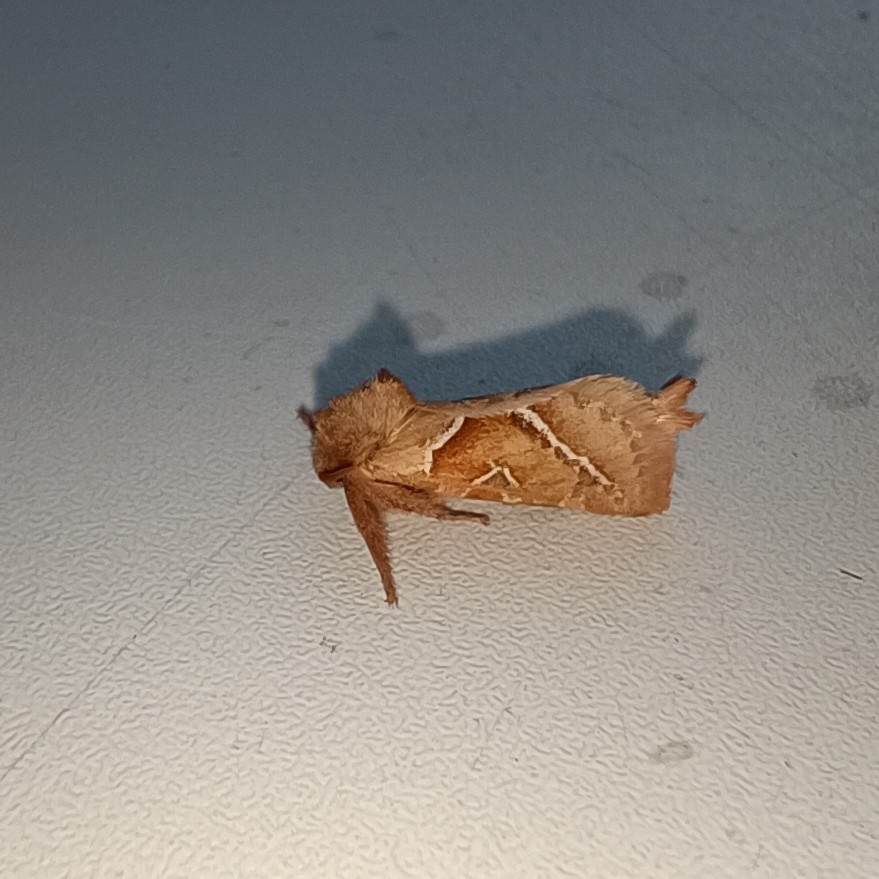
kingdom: Animalia
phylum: Arthropoda
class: Insecta
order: Lepidoptera
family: Hepialidae
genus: Triodia
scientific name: Triodia sylvina
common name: Orange swift
